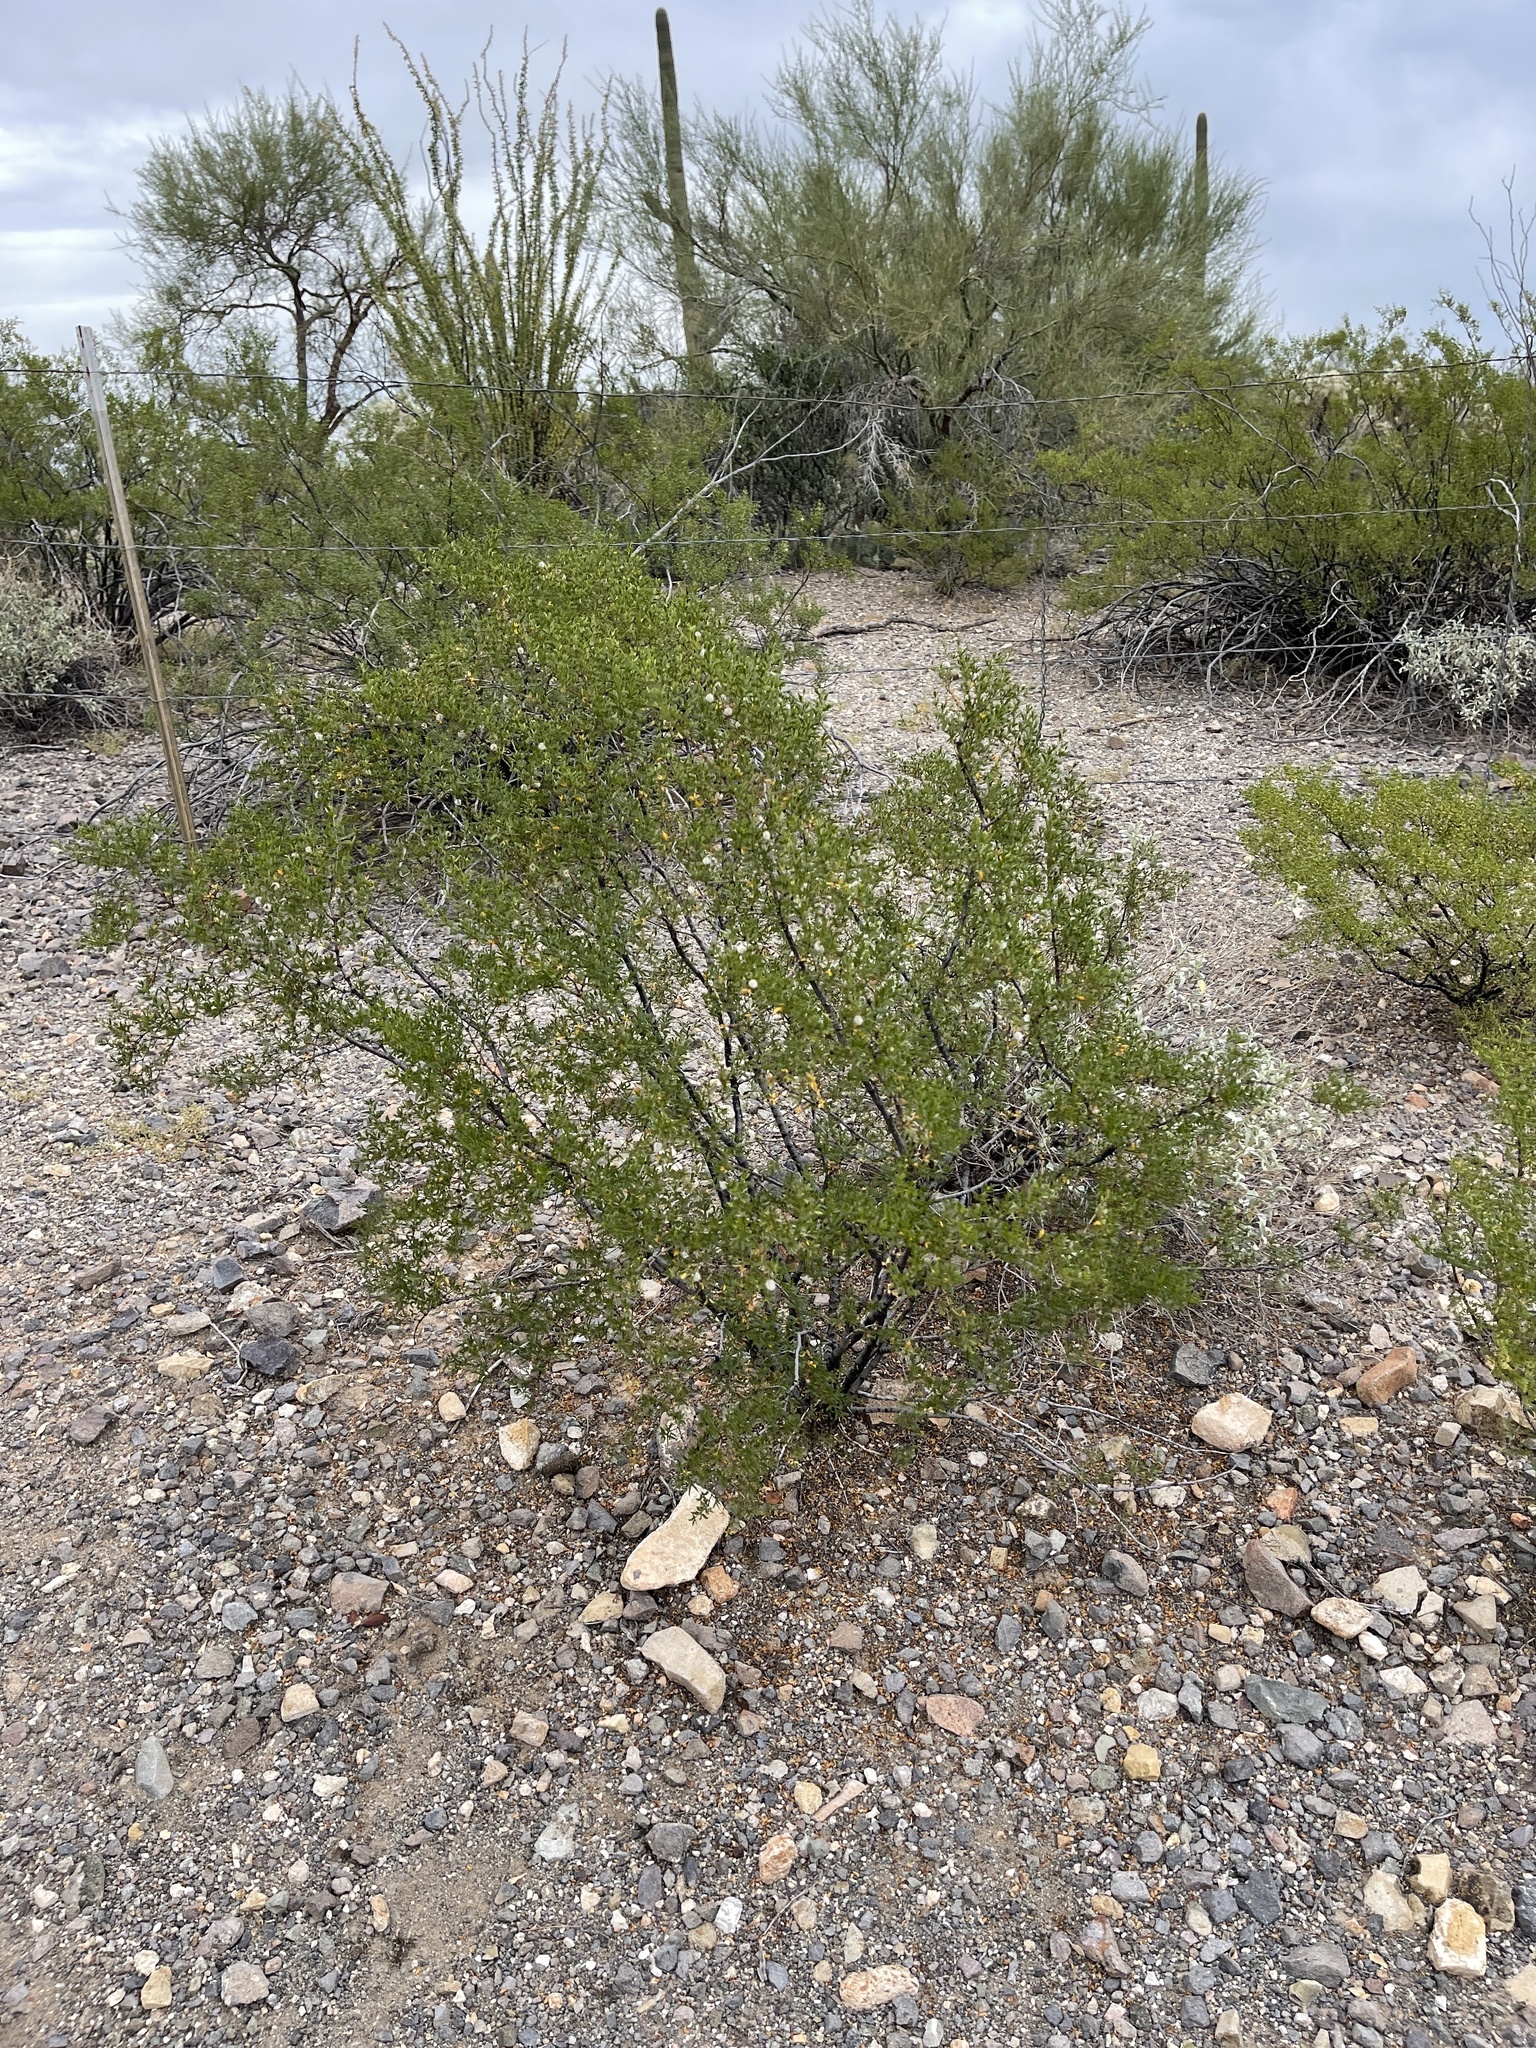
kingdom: Plantae
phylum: Tracheophyta
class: Magnoliopsida
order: Zygophyllales
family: Zygophyllaceae
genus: Larrea
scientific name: Larrea tridentata
